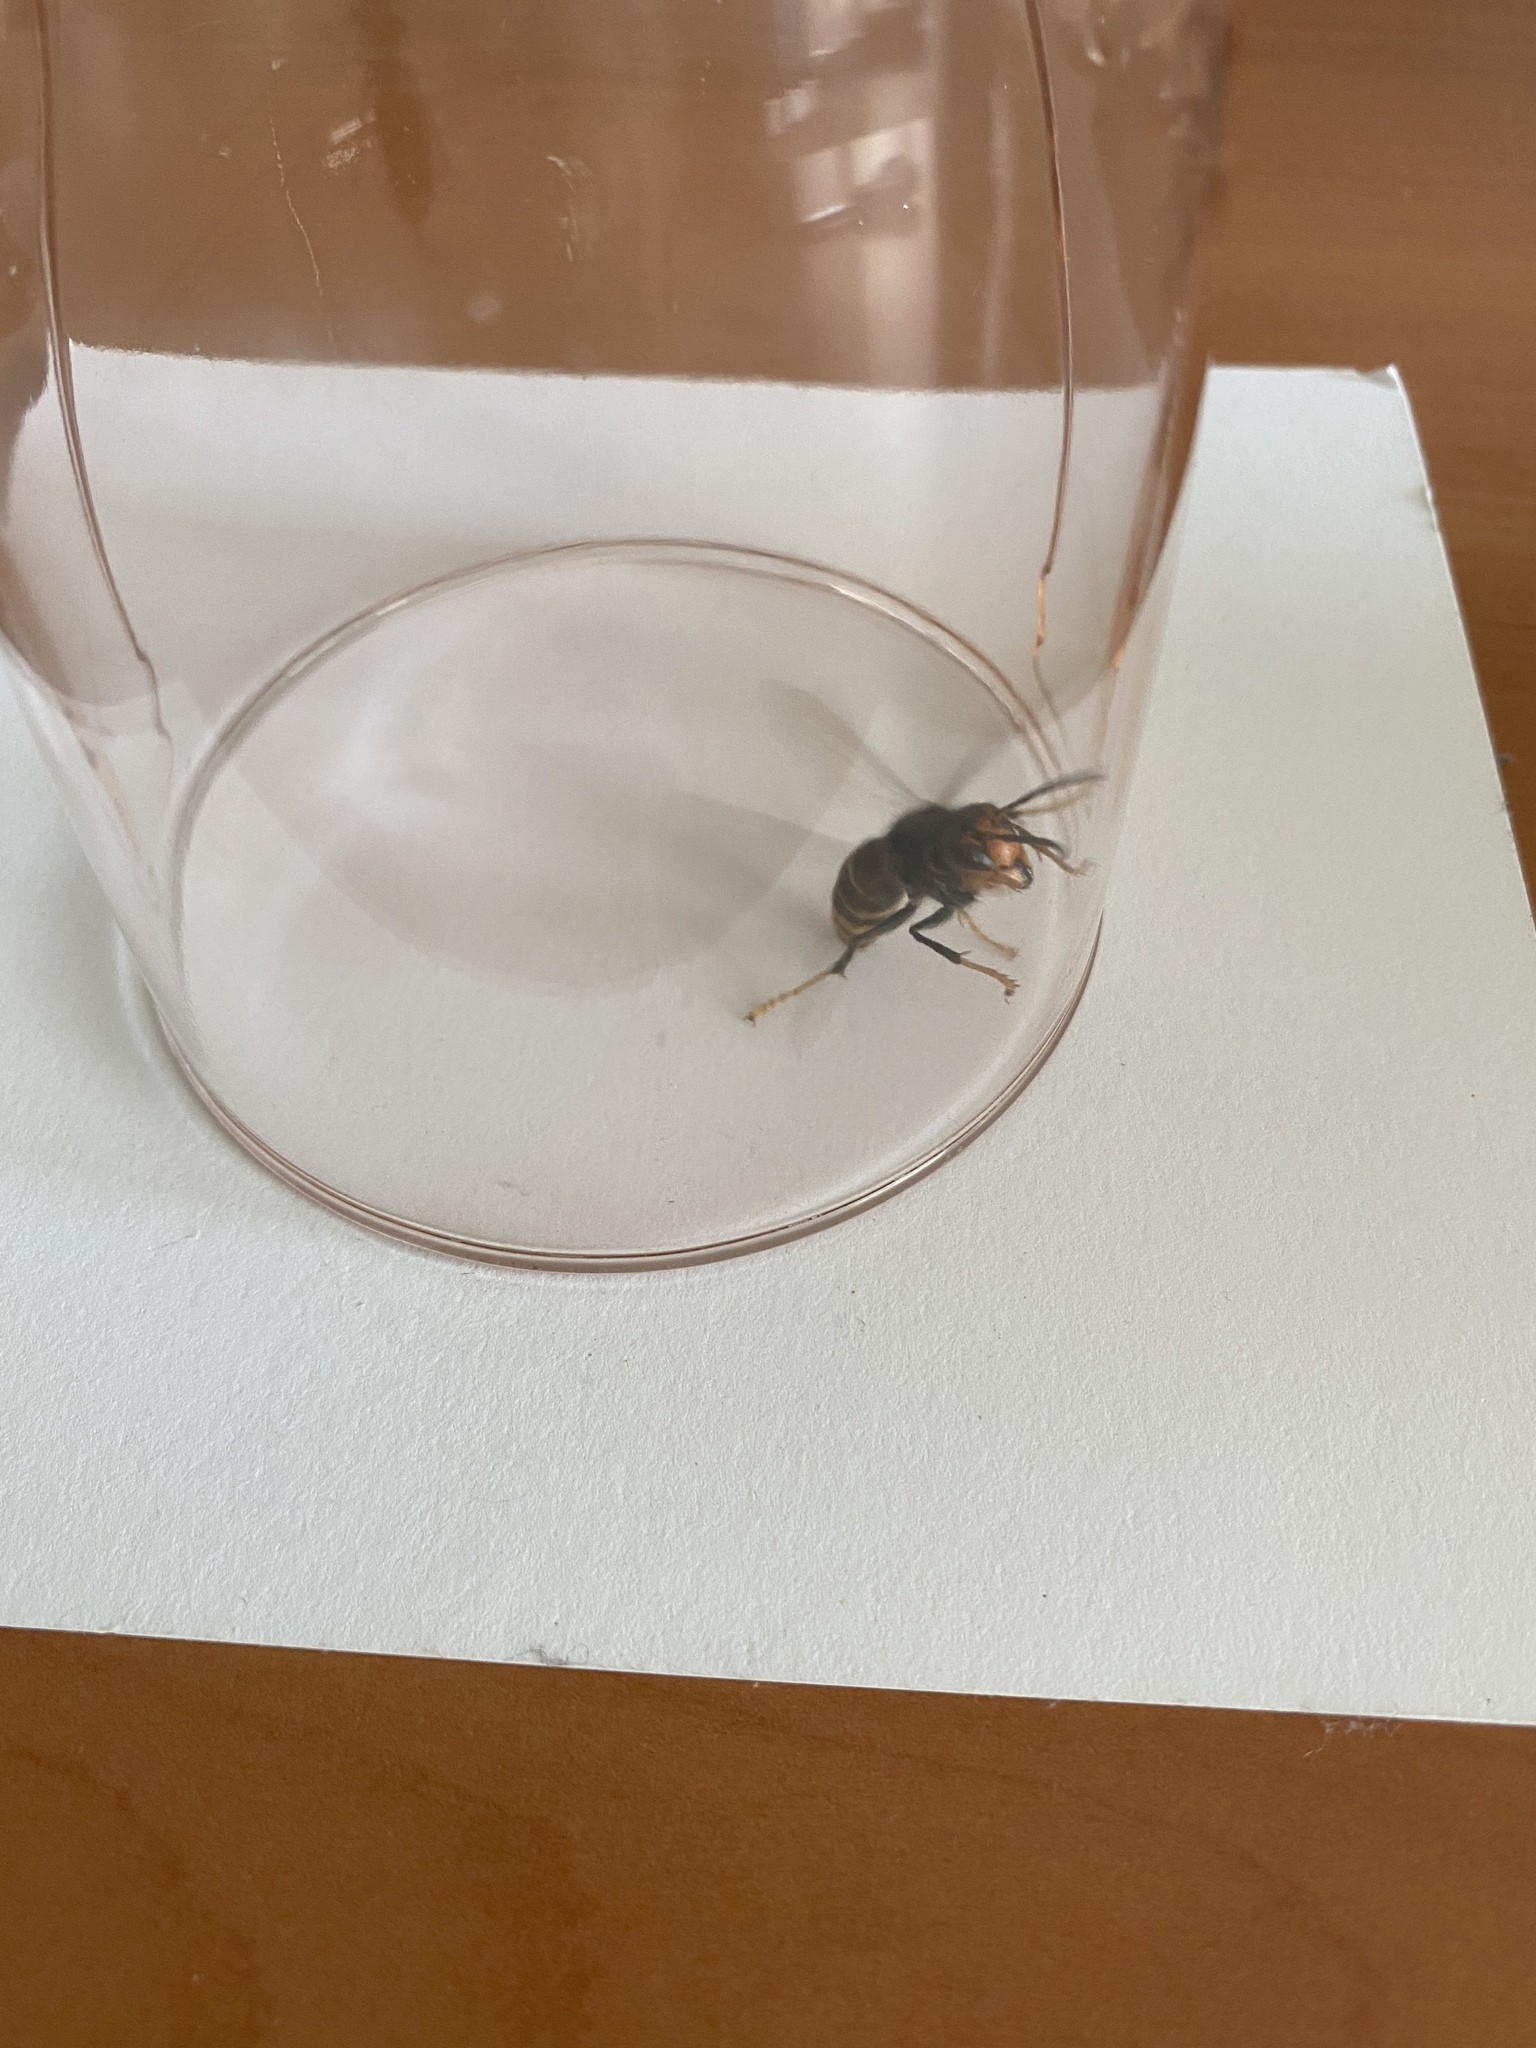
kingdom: Animalia
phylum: Arthropoda
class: Insecta
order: Hymenoptera
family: Vespidae
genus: Vespa
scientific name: Vespa velutina
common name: Asian hornet
